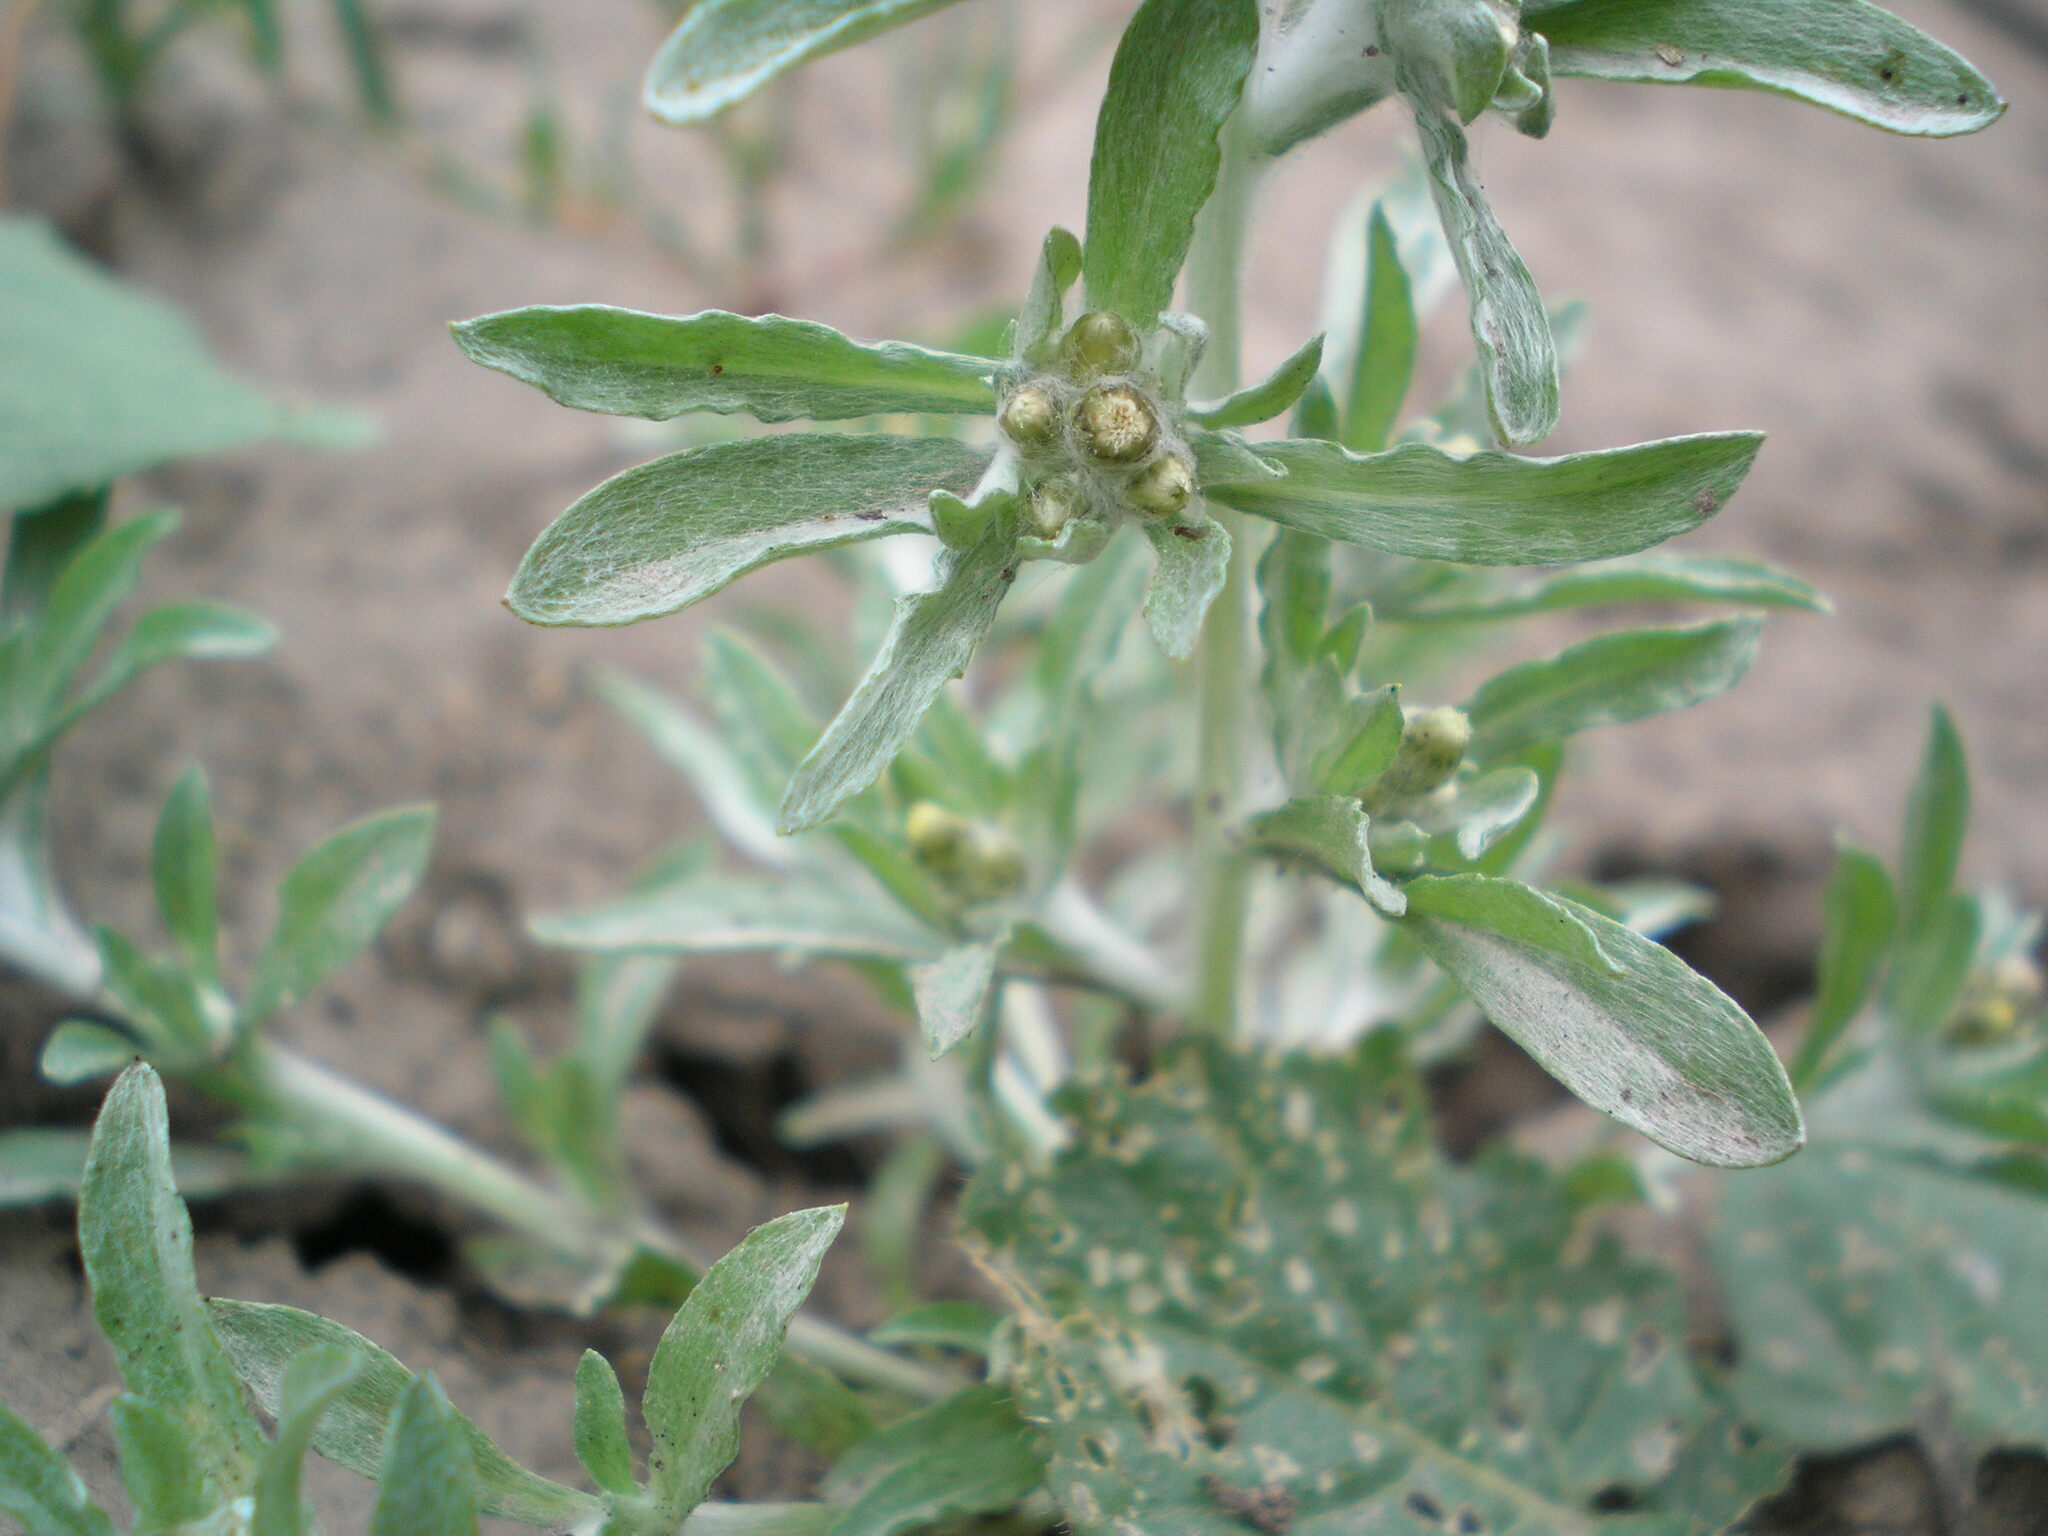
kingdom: Plantae
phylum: Tracheophyta
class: Magnoliopsida
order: Asterales
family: Asteraceae
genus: Gnaphalium
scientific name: Gnaphalium rossicum
